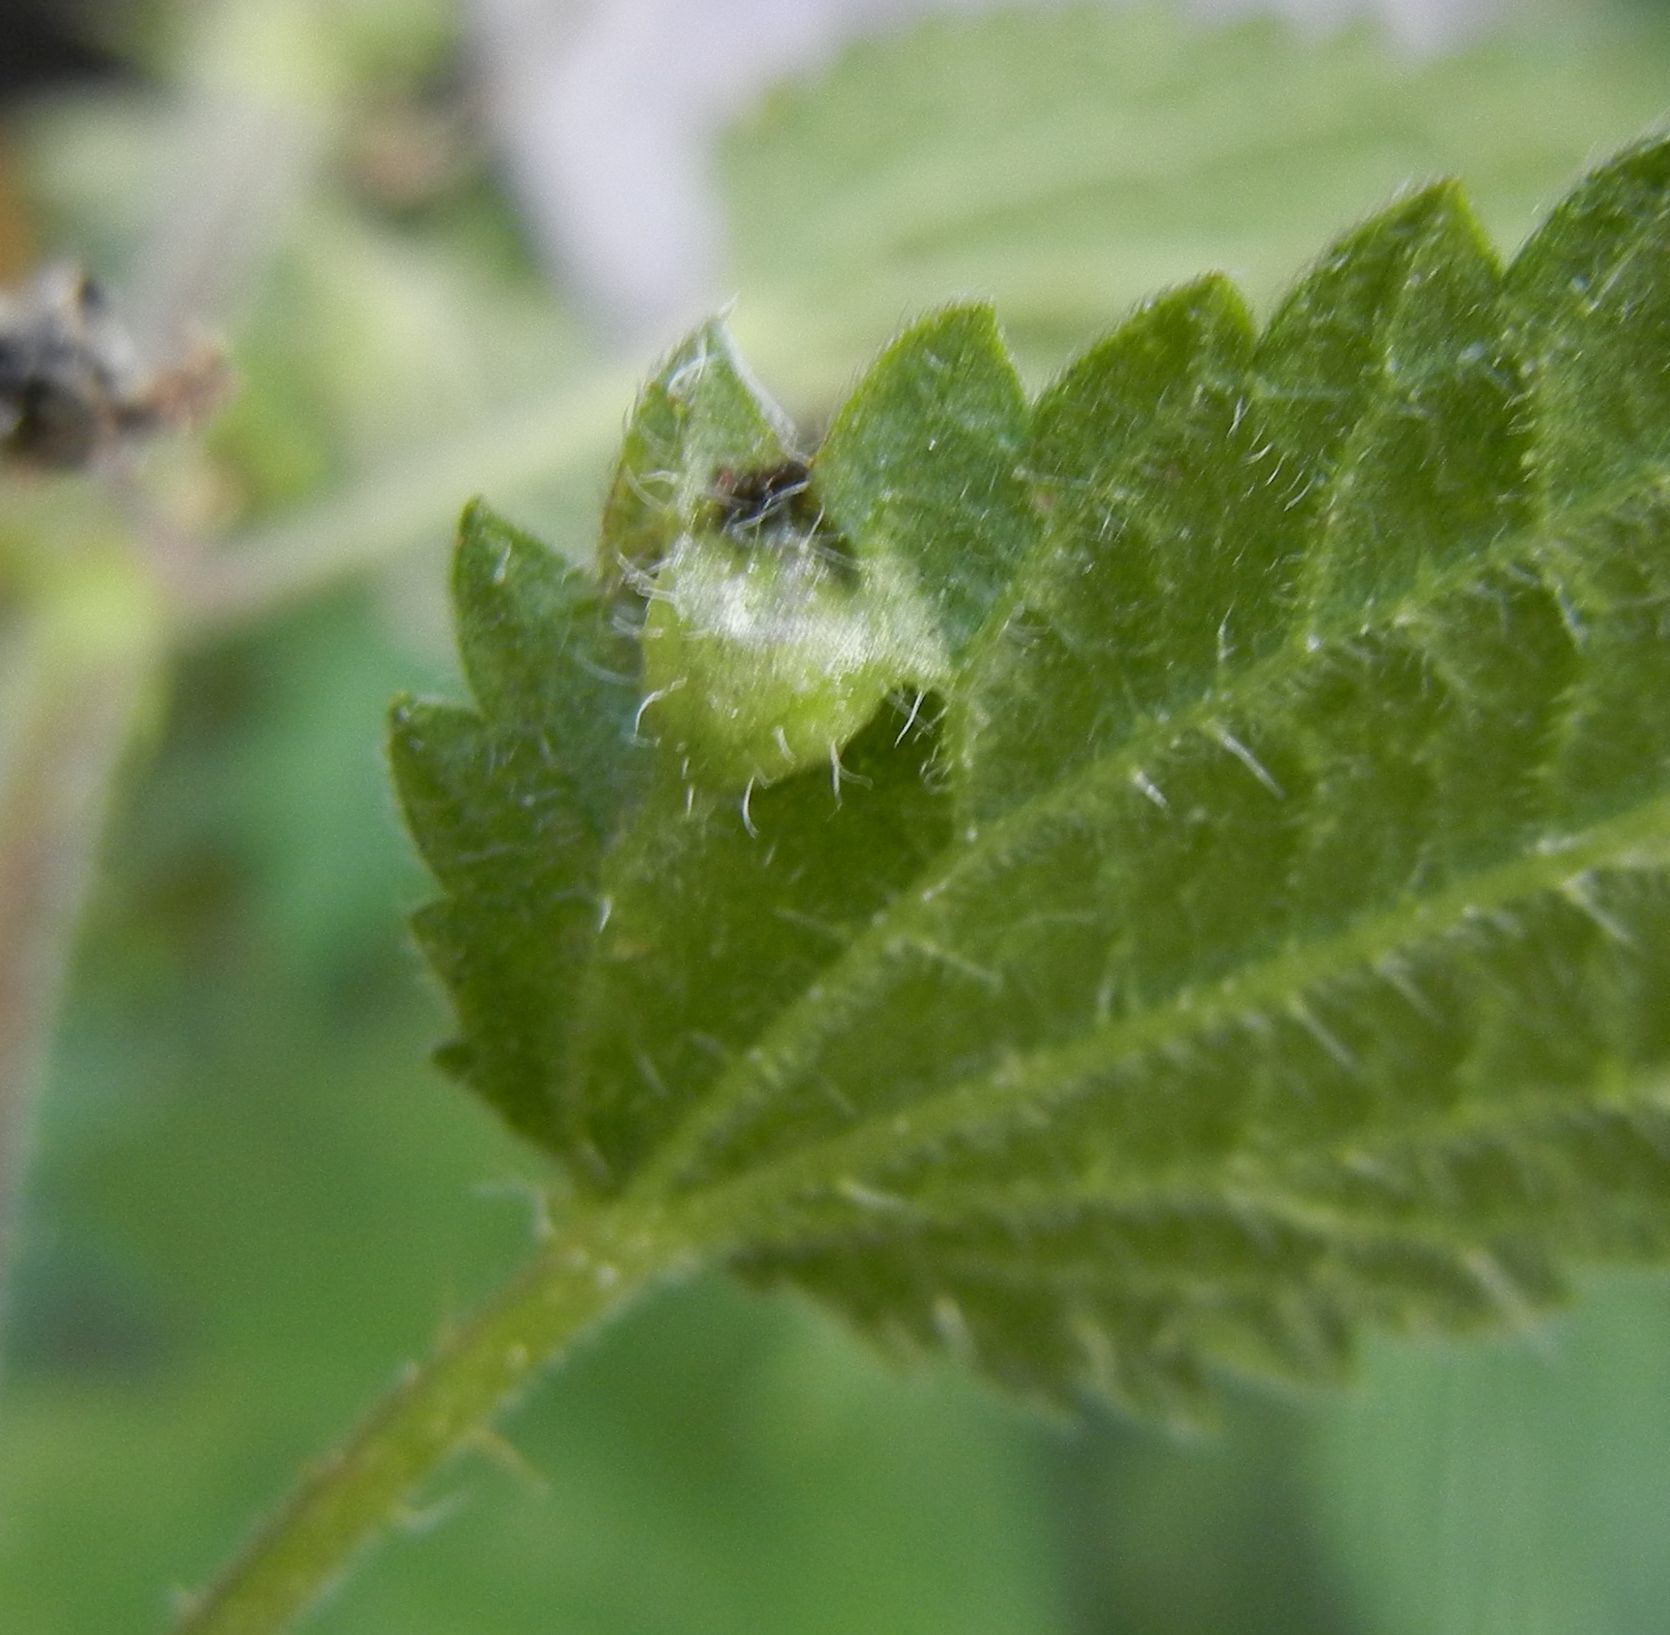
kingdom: Animalia
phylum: Arthropoda
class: Insecta
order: Diptera
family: Cecidomyiidae
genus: Dasineura
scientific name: Dasineura urticae
